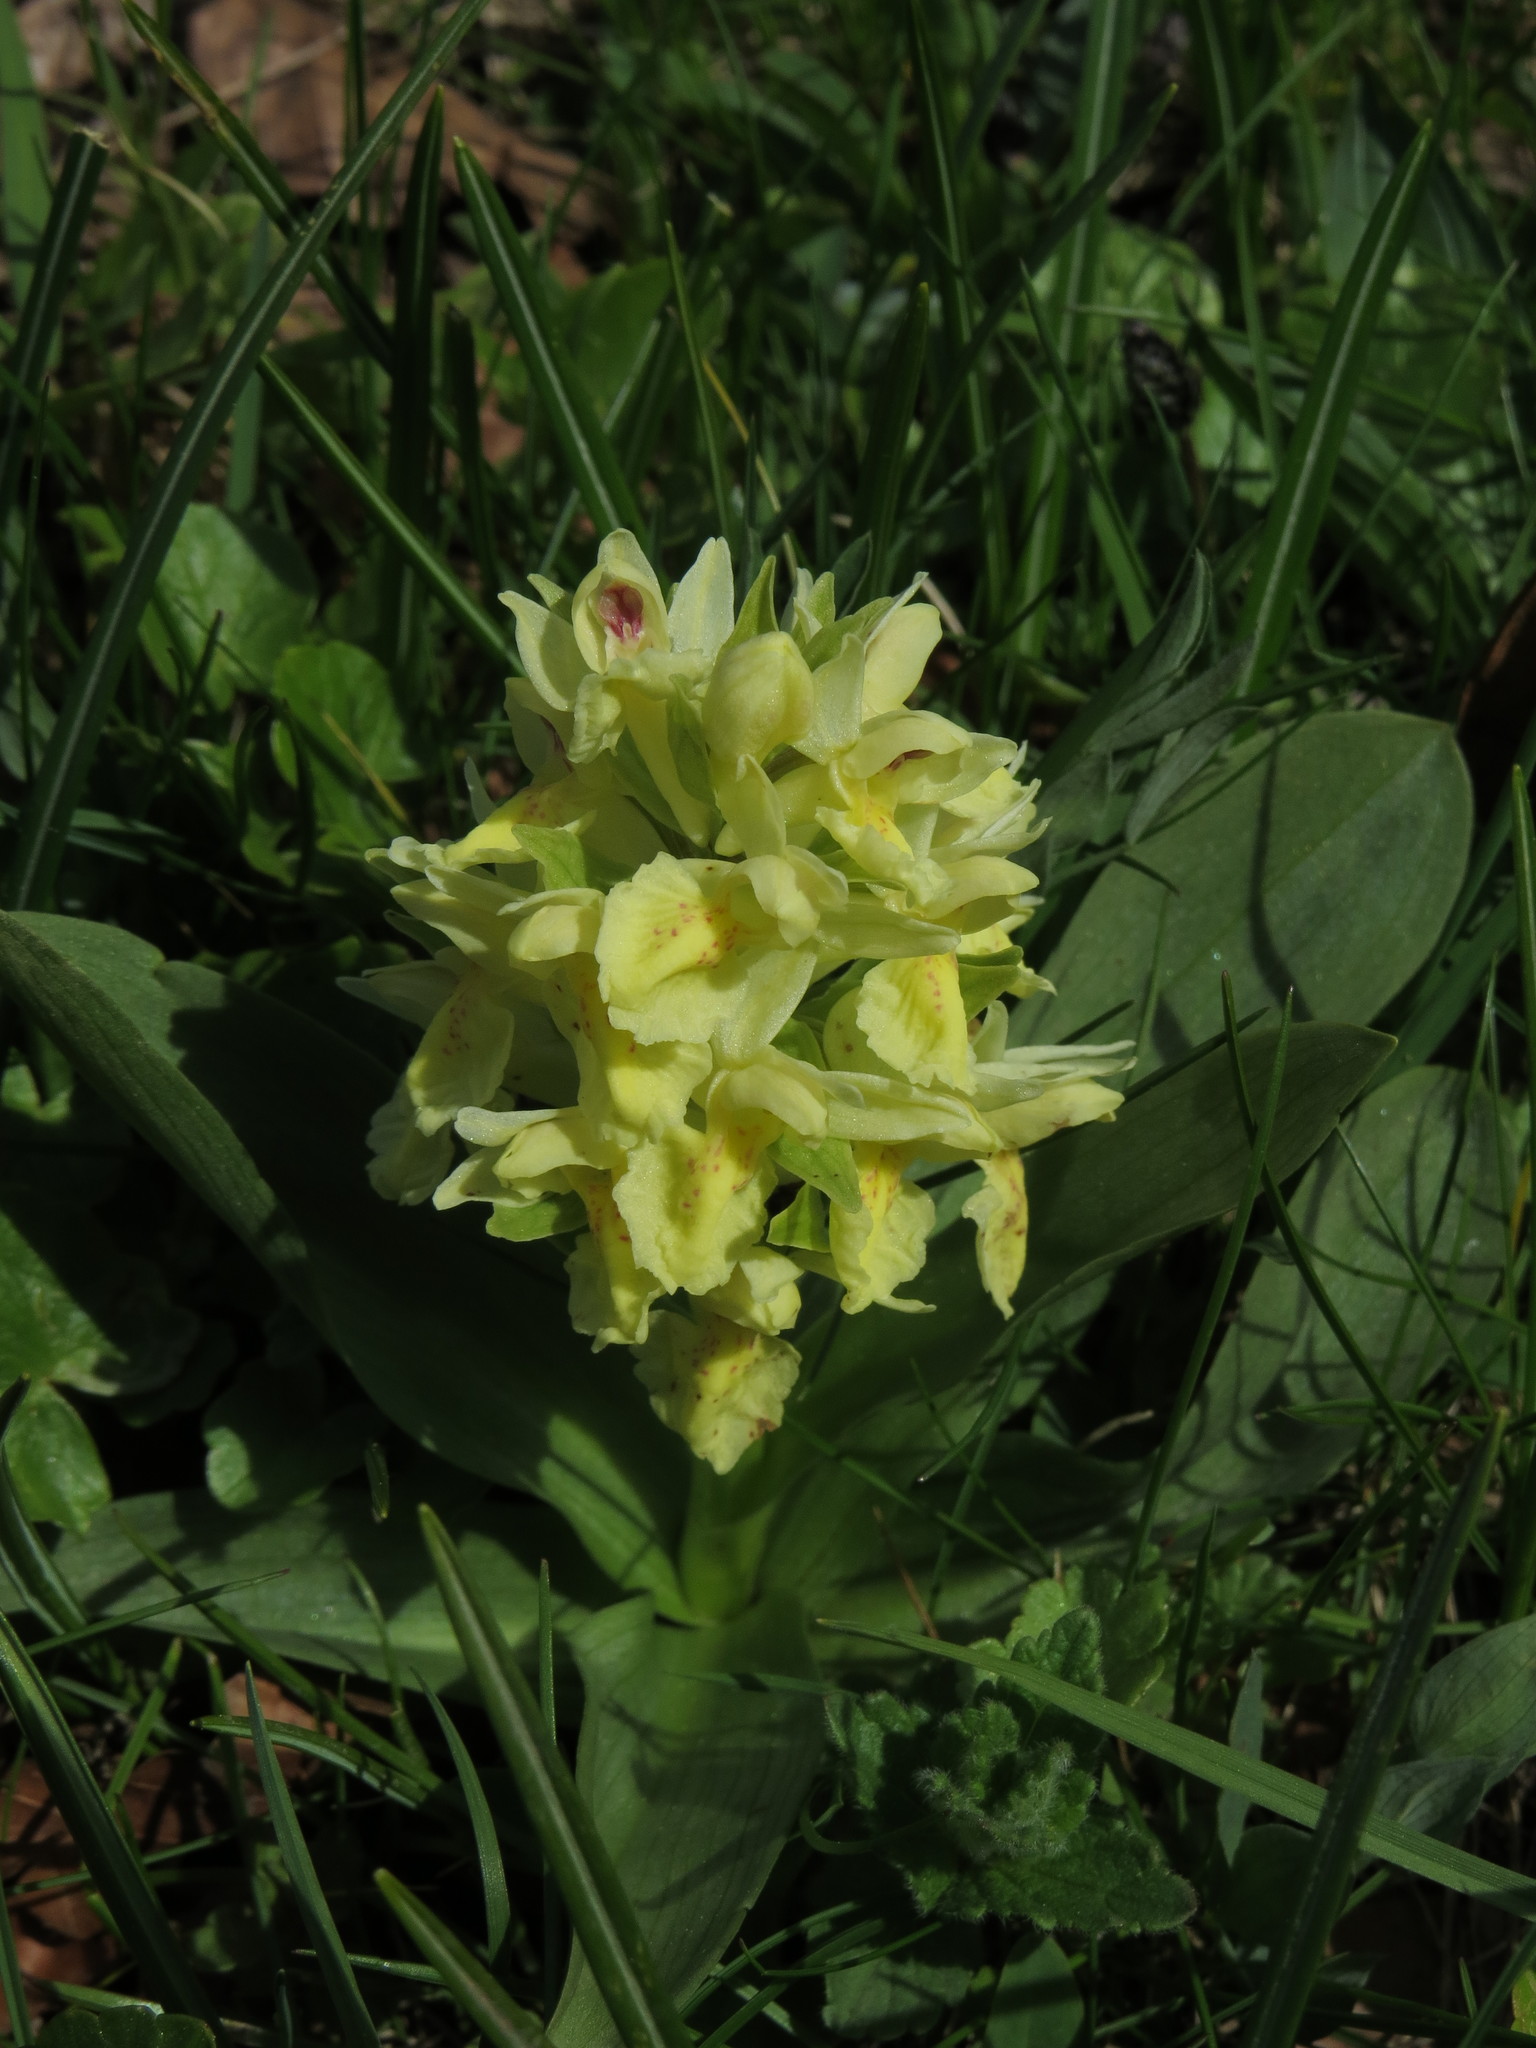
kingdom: Plantae
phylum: Tracheophyta
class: Liliopsida
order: Asparagales
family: Orchidaceae
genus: Dactylorhiza
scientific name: Dactylorhiza sambucina
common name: Elder-flowered orchid
